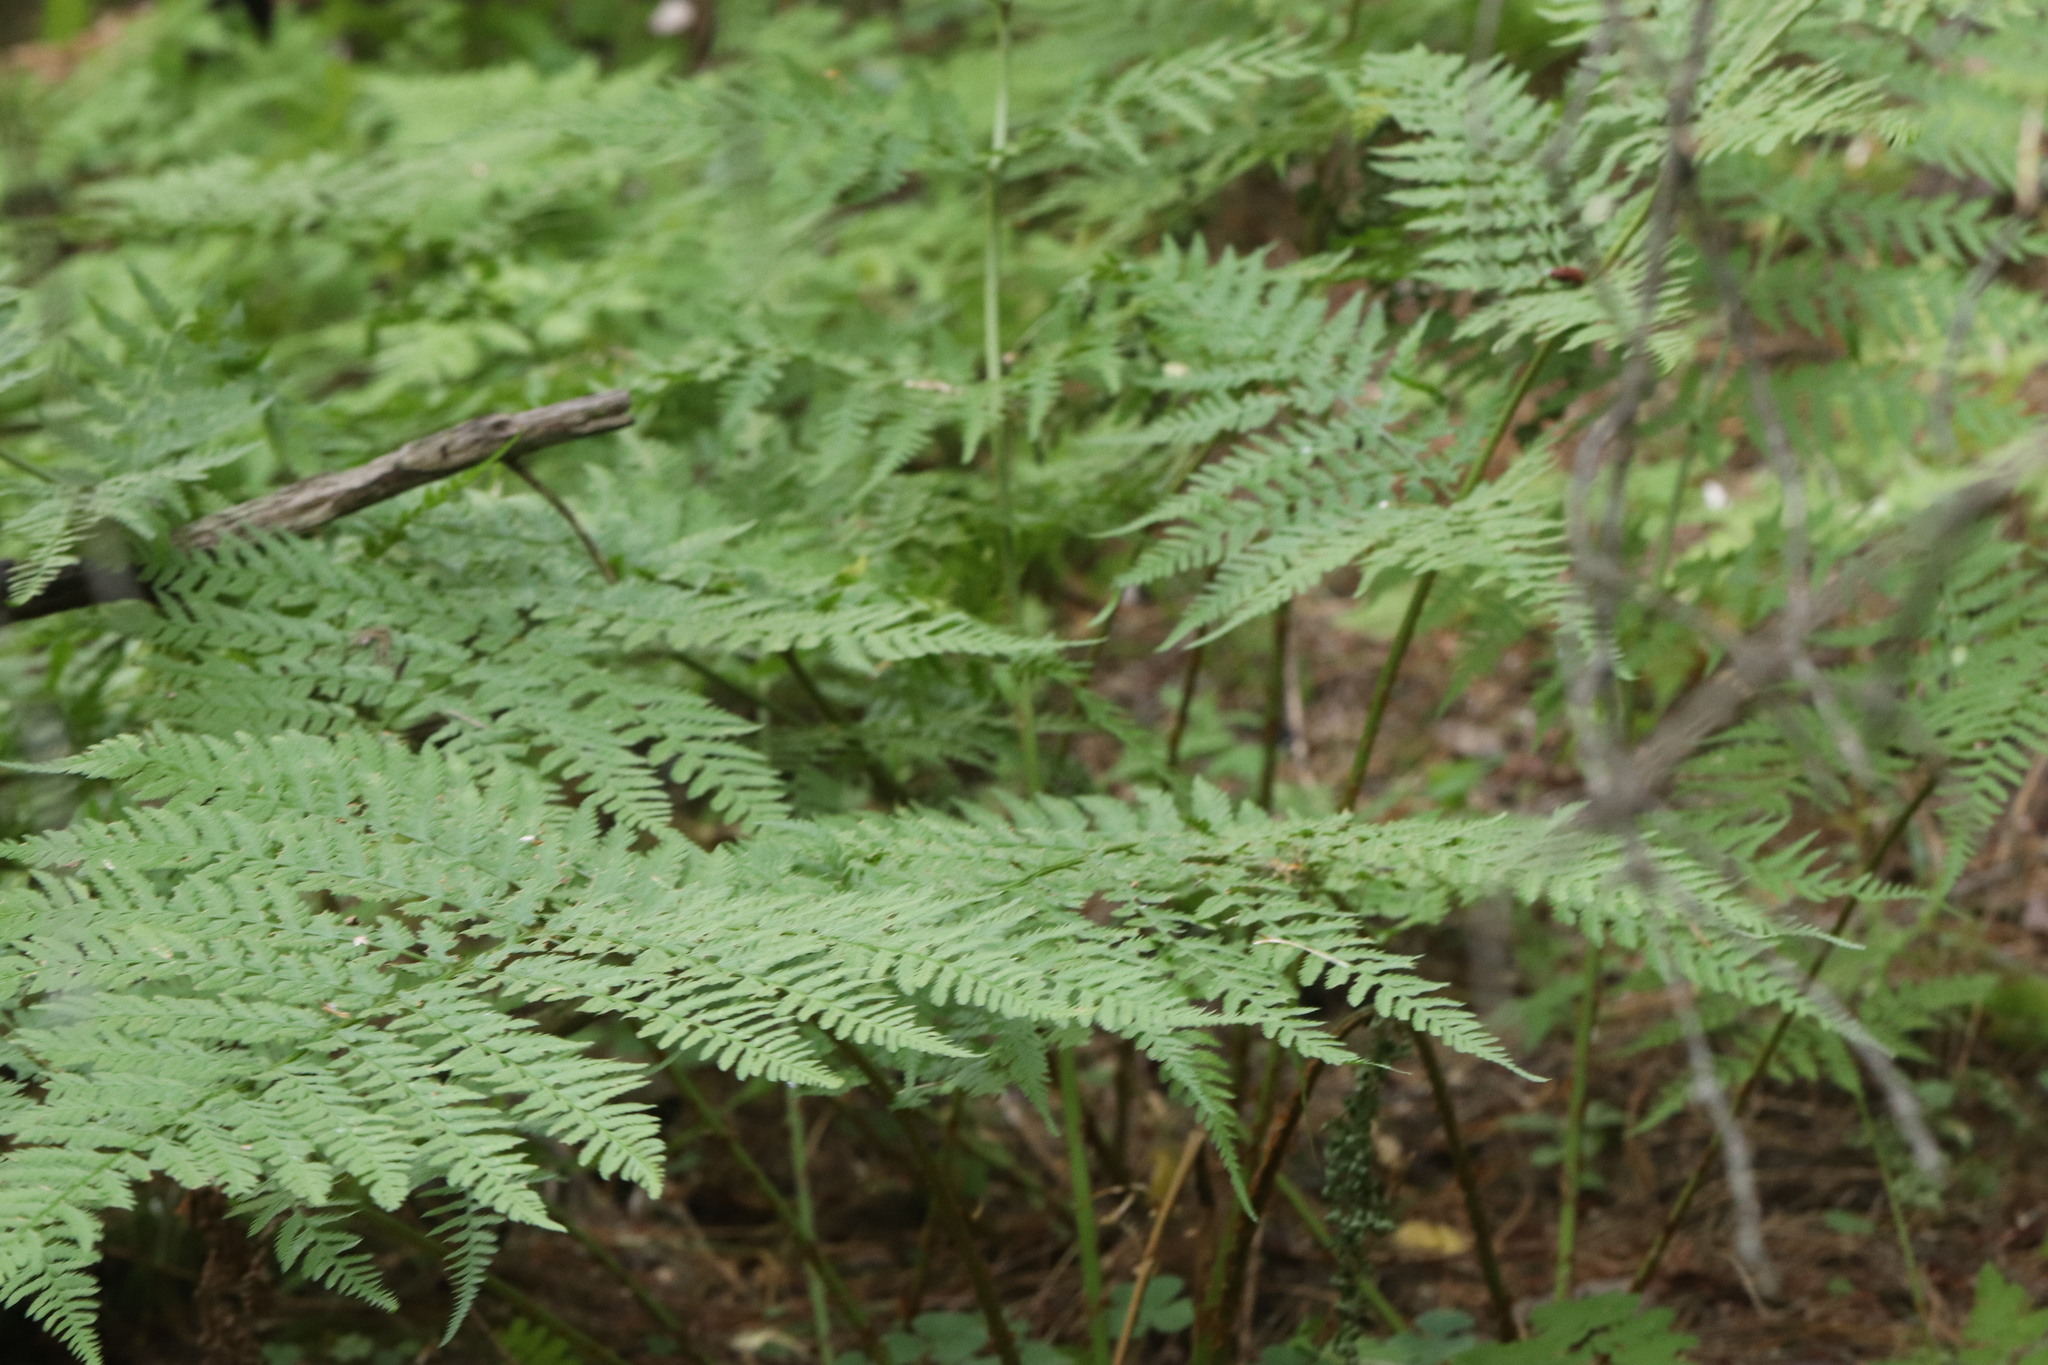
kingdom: Plantae
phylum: Tracheophyta
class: Polypodiopsida
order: Polypodiales
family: Dryopteridaceae
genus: Dryopteris
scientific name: Dryopteris expansa
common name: Northern buckler fern
